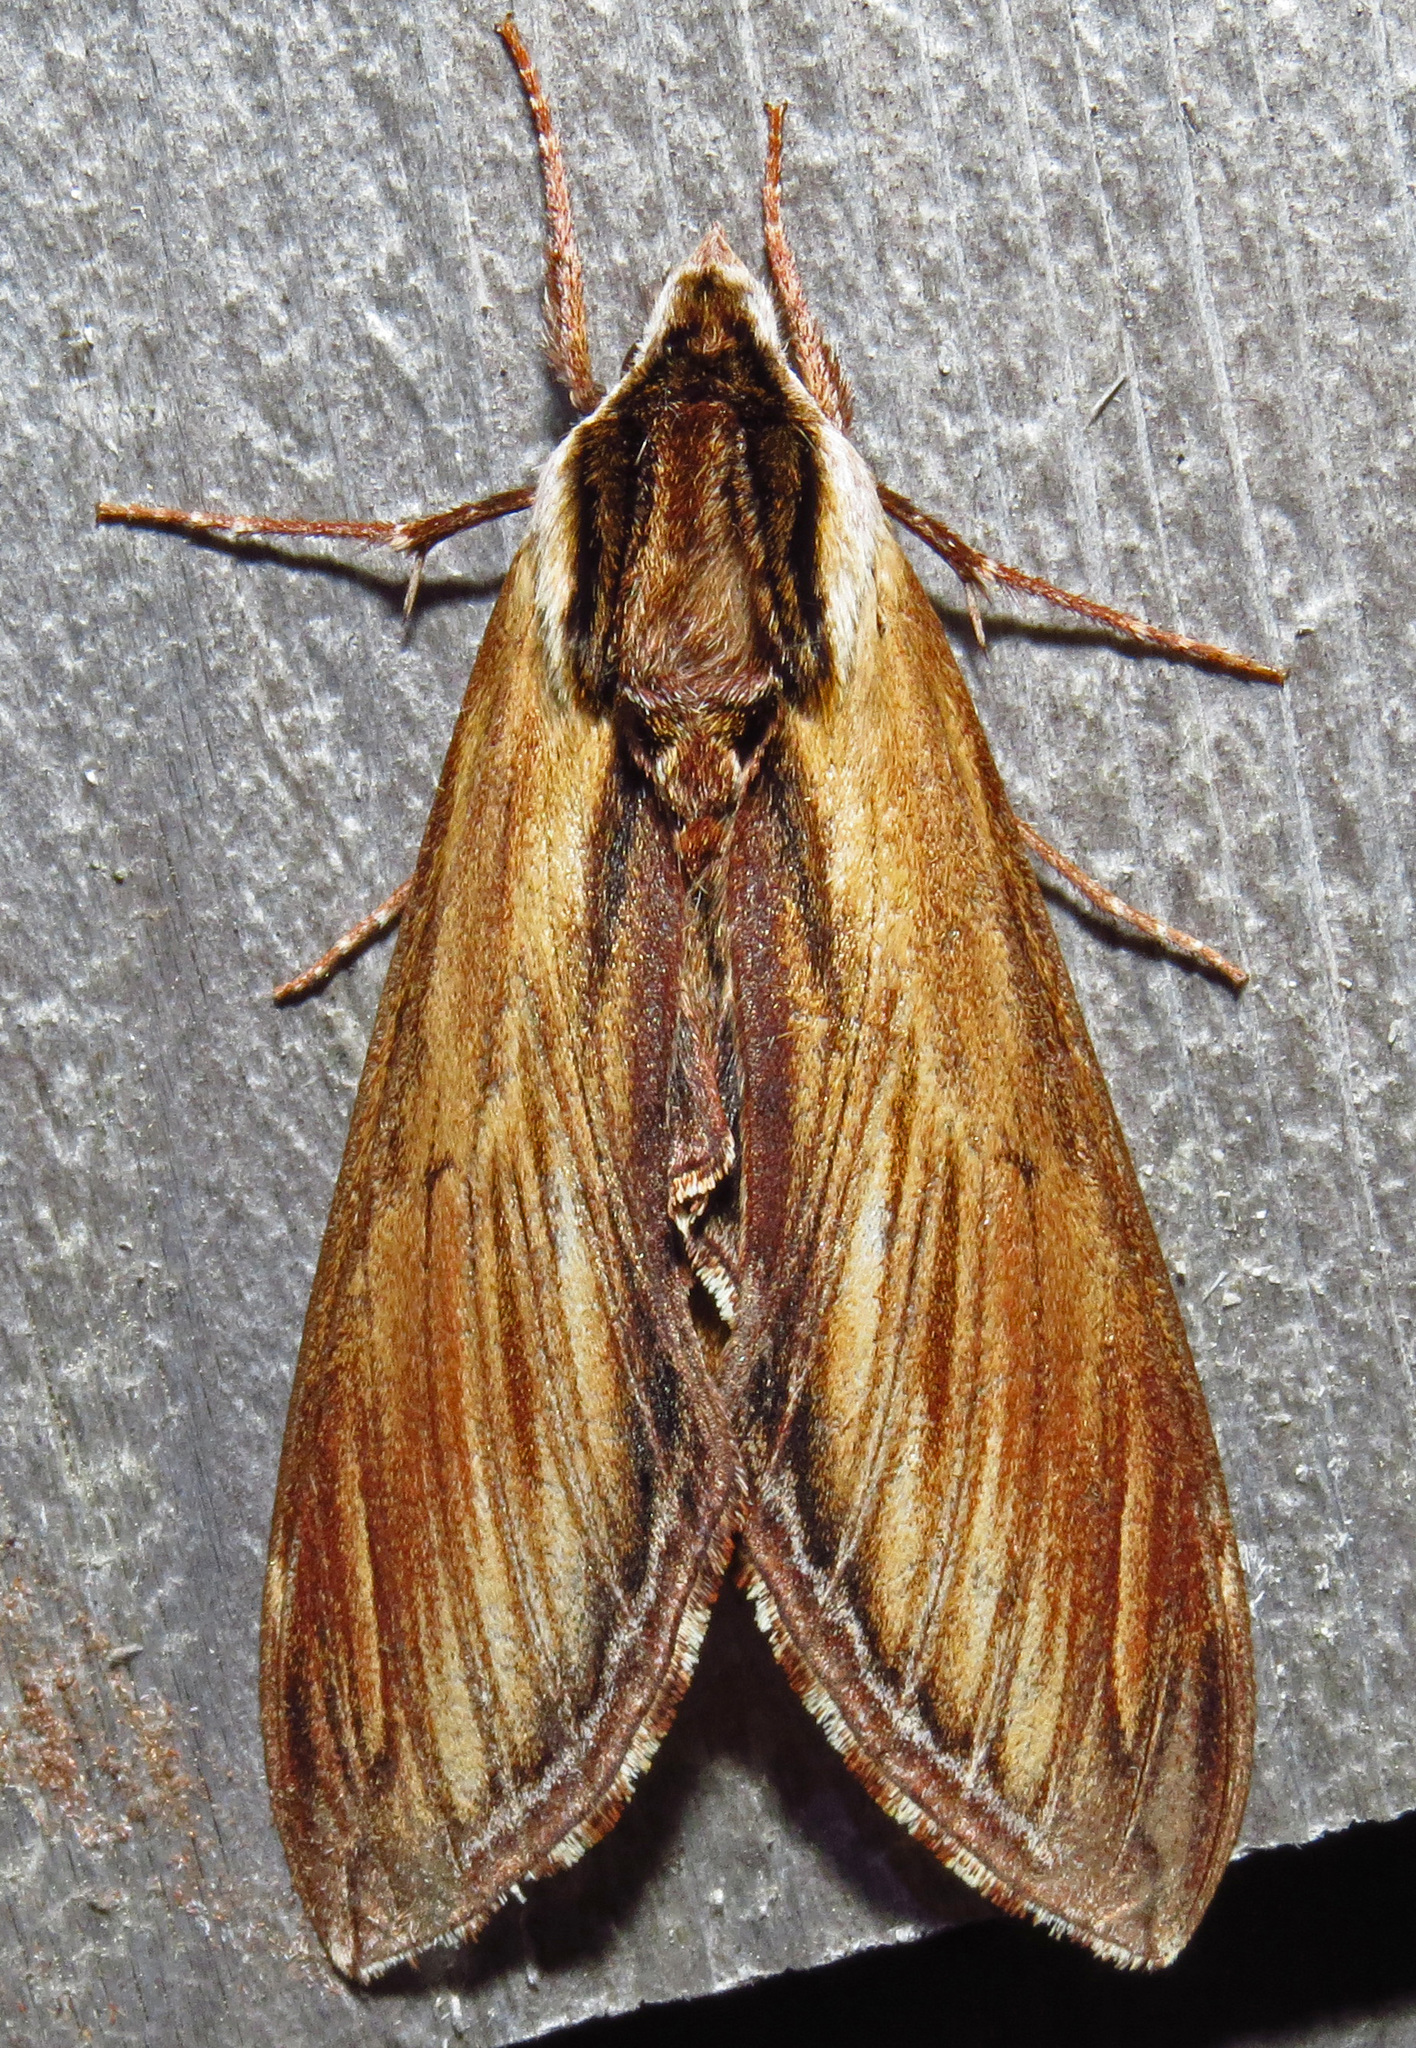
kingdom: Animalia
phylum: Arthropoda
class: Insecta
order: Lepidoptera
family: Sphingidae
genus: Sphinx
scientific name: Sphinx kalmiae
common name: Laurel sphinx
